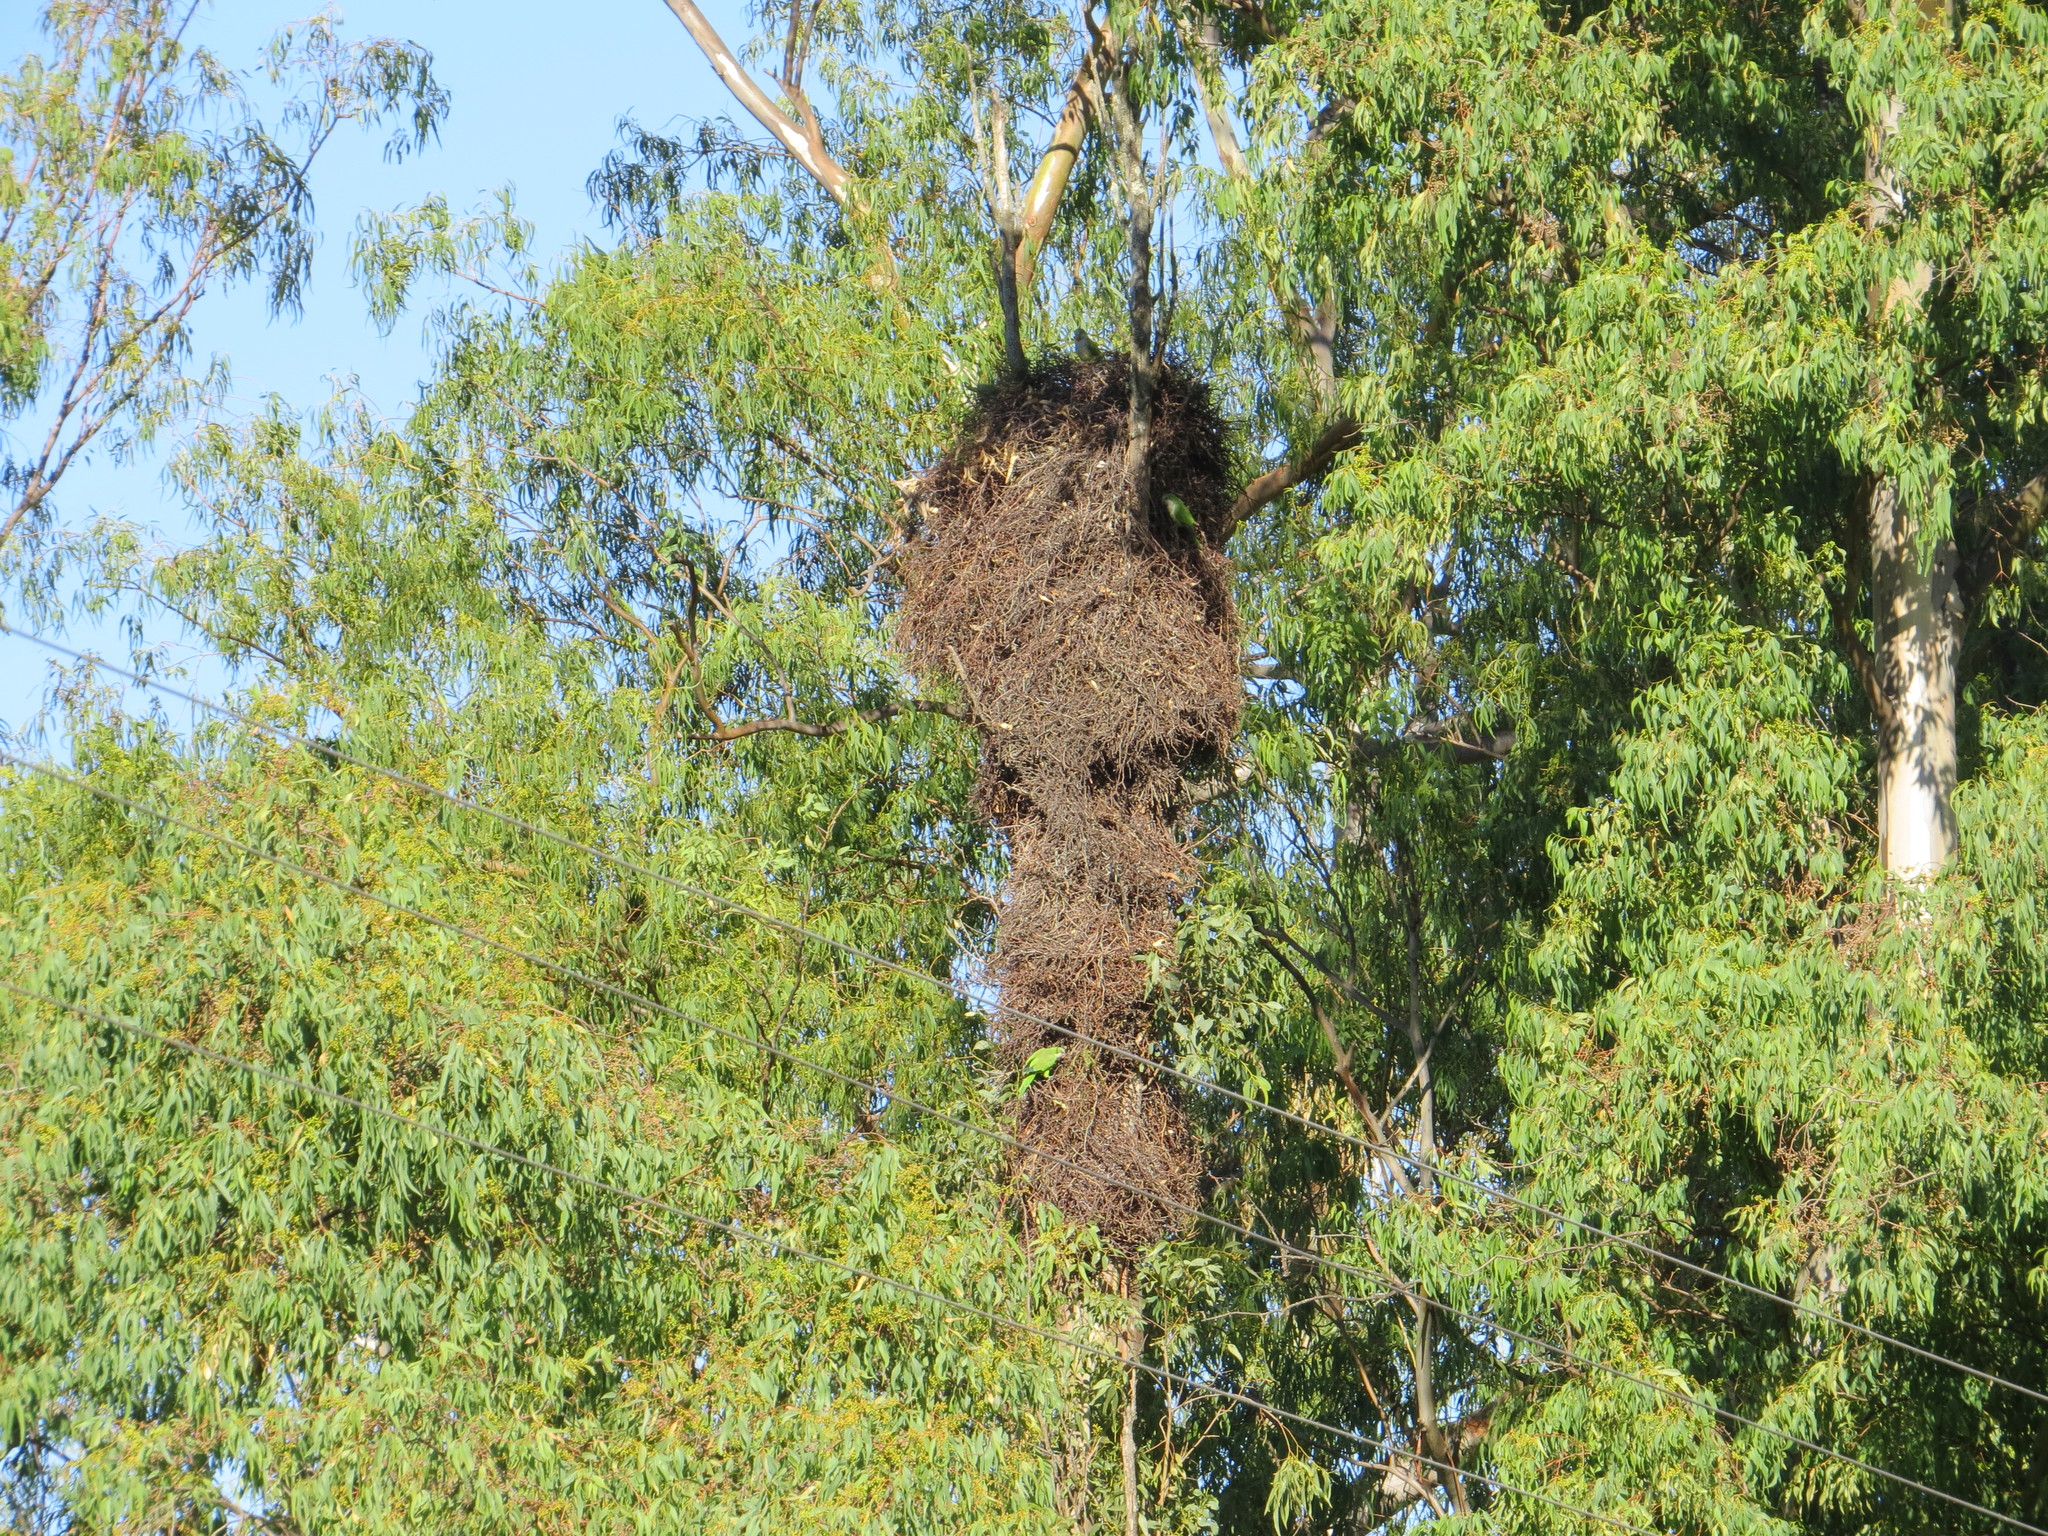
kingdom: Animalia
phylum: Chordata
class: Aves
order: Psittaciformes
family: Psittacidae
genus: Myiopsitta
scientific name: Myiopsitta monachus
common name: Monk parakeet
